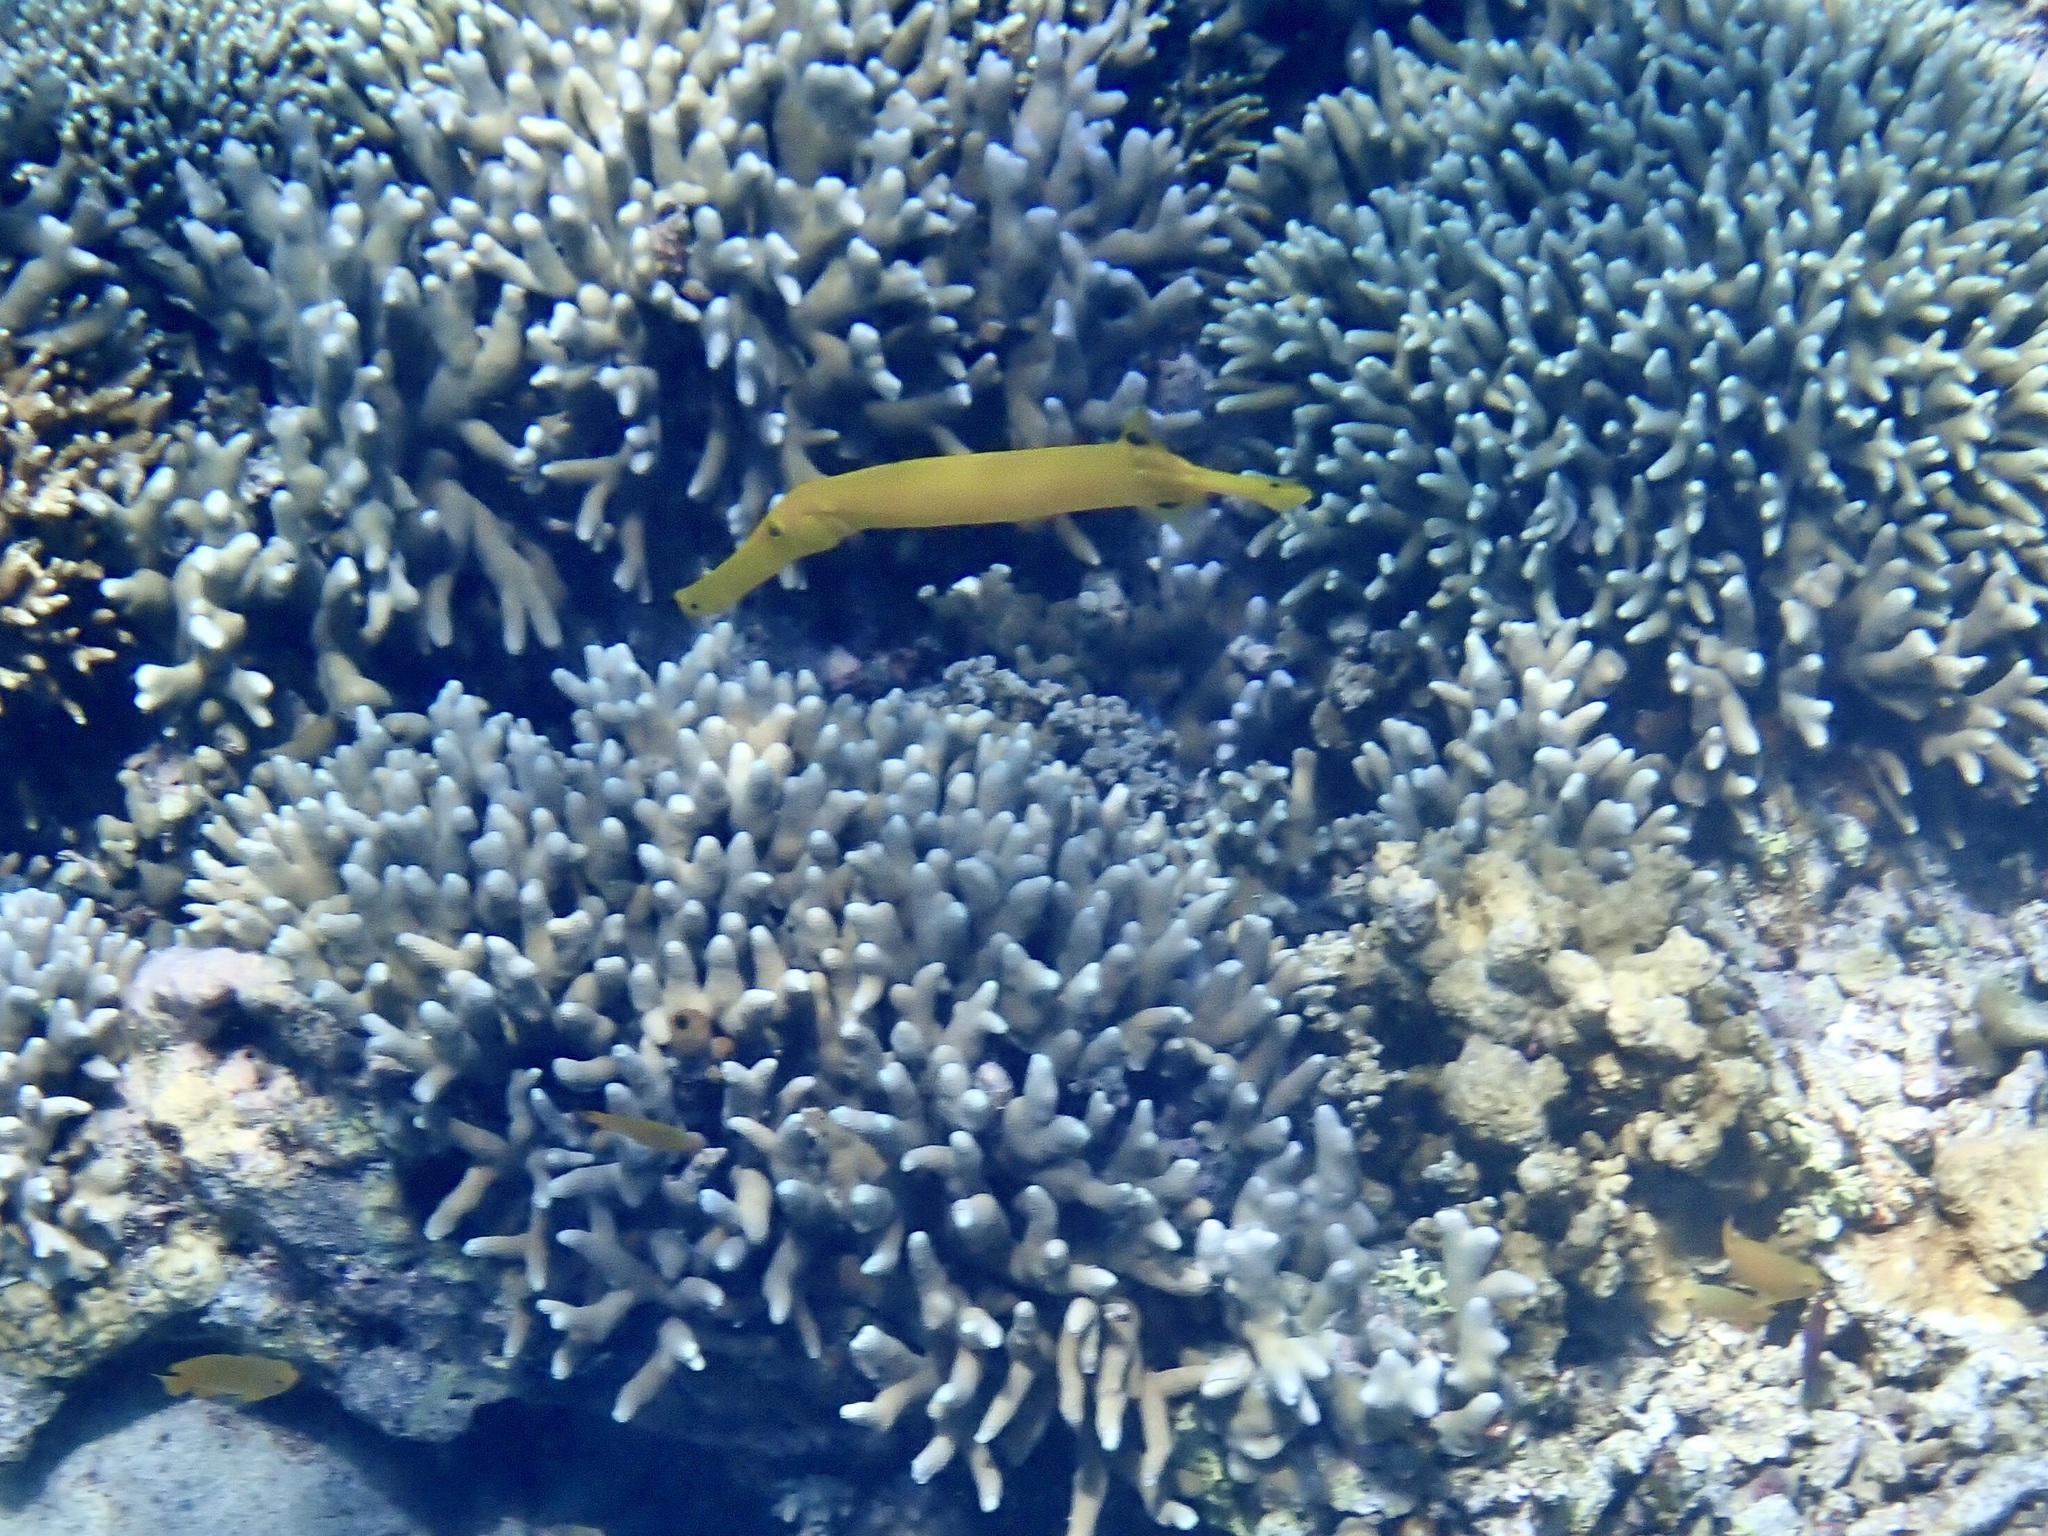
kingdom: Animalia
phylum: Chordata
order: Syngnathiformes
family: Aulostomidae
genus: Aulostomus
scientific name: Aulostomus chinensis
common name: Chinese trumpetfish
